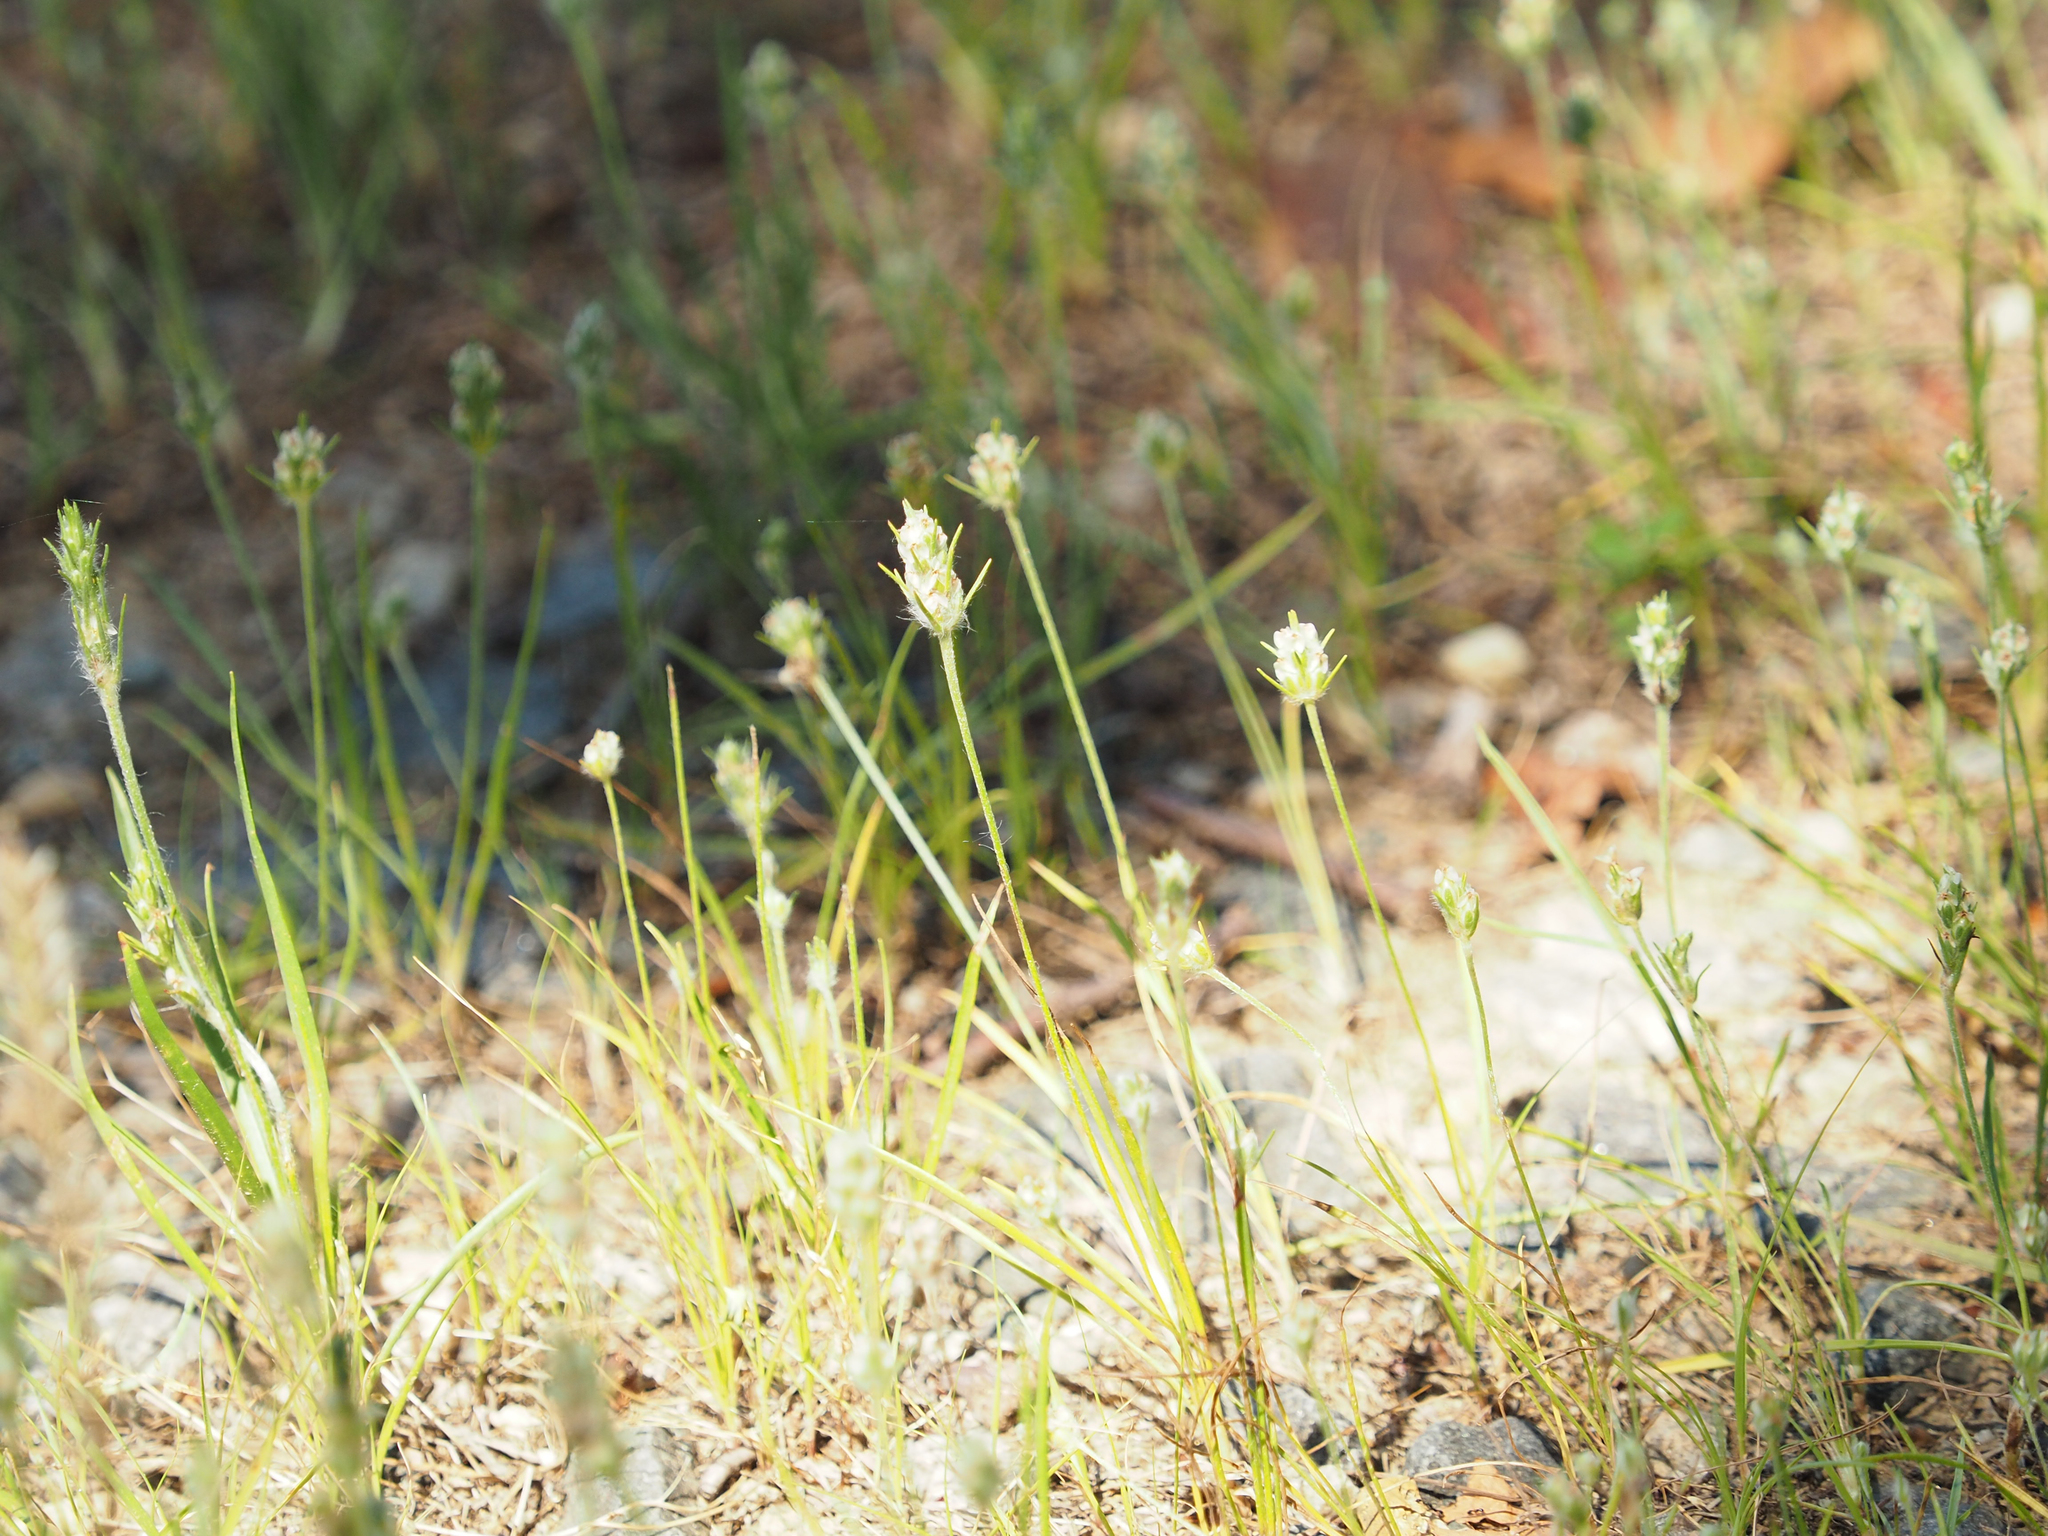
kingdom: Plantae
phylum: Tracheophyta
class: Magnoliopsida
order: Lamiales
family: Plantaginaceae
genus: Plantago
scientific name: Plantago aristata
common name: Bracted plantain
